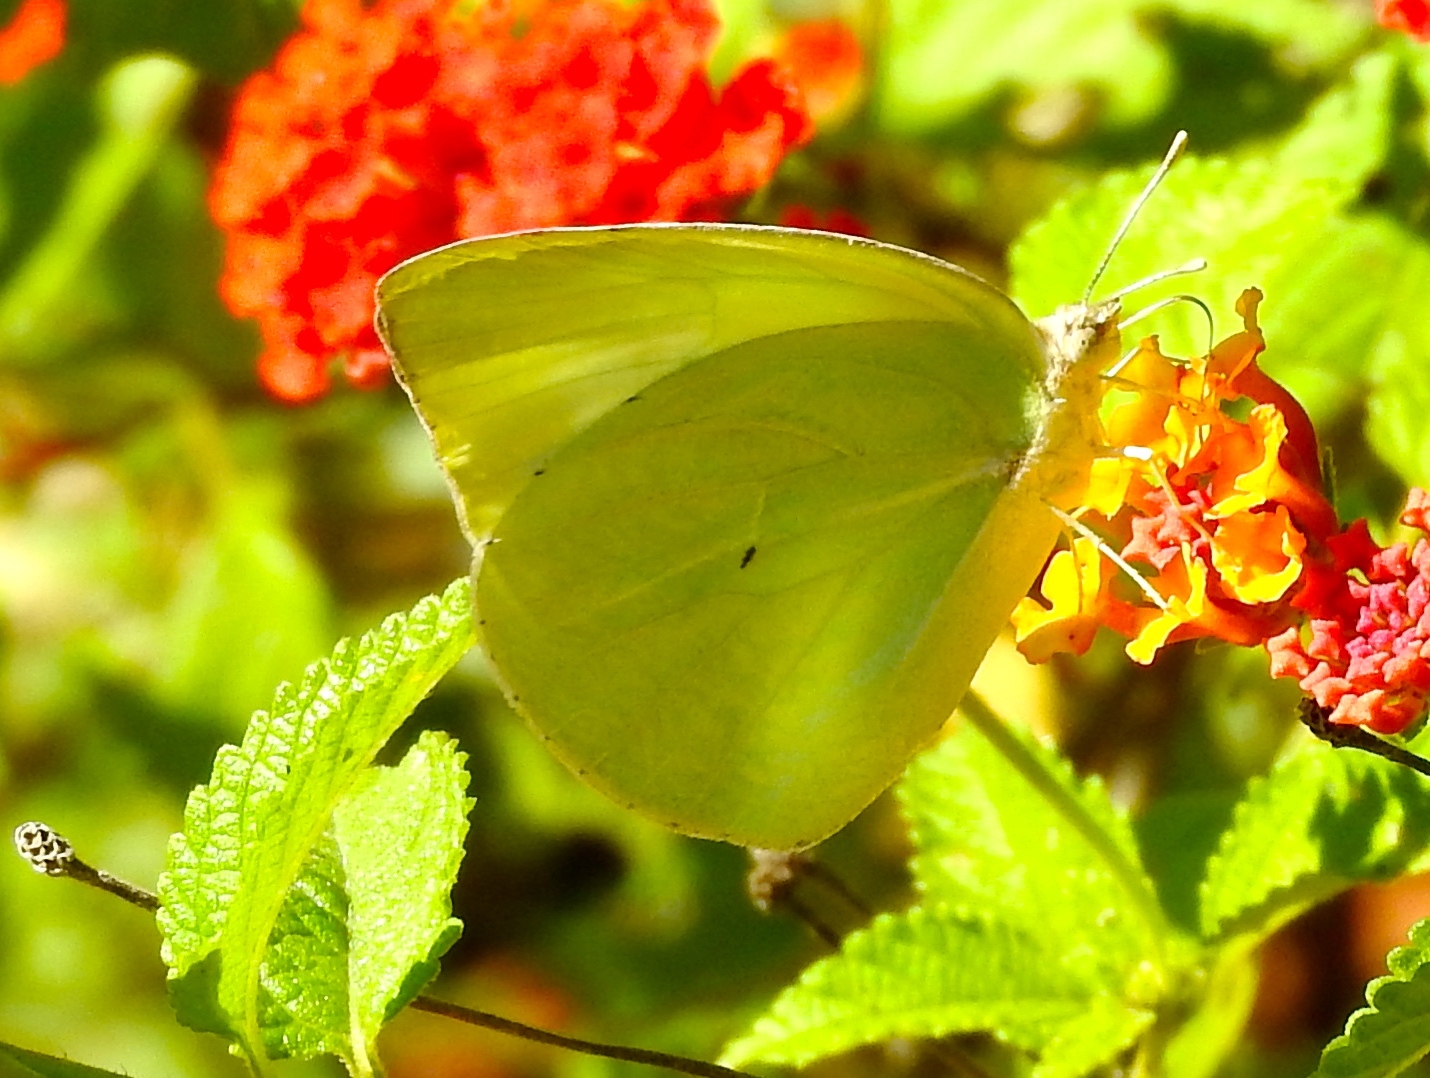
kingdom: Animalia
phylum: Arthropoda
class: Insecta
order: Lepidoptera
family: Pieridae
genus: Kricogonia
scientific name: Kricogonia lyside
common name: Guayacan sulphur,
